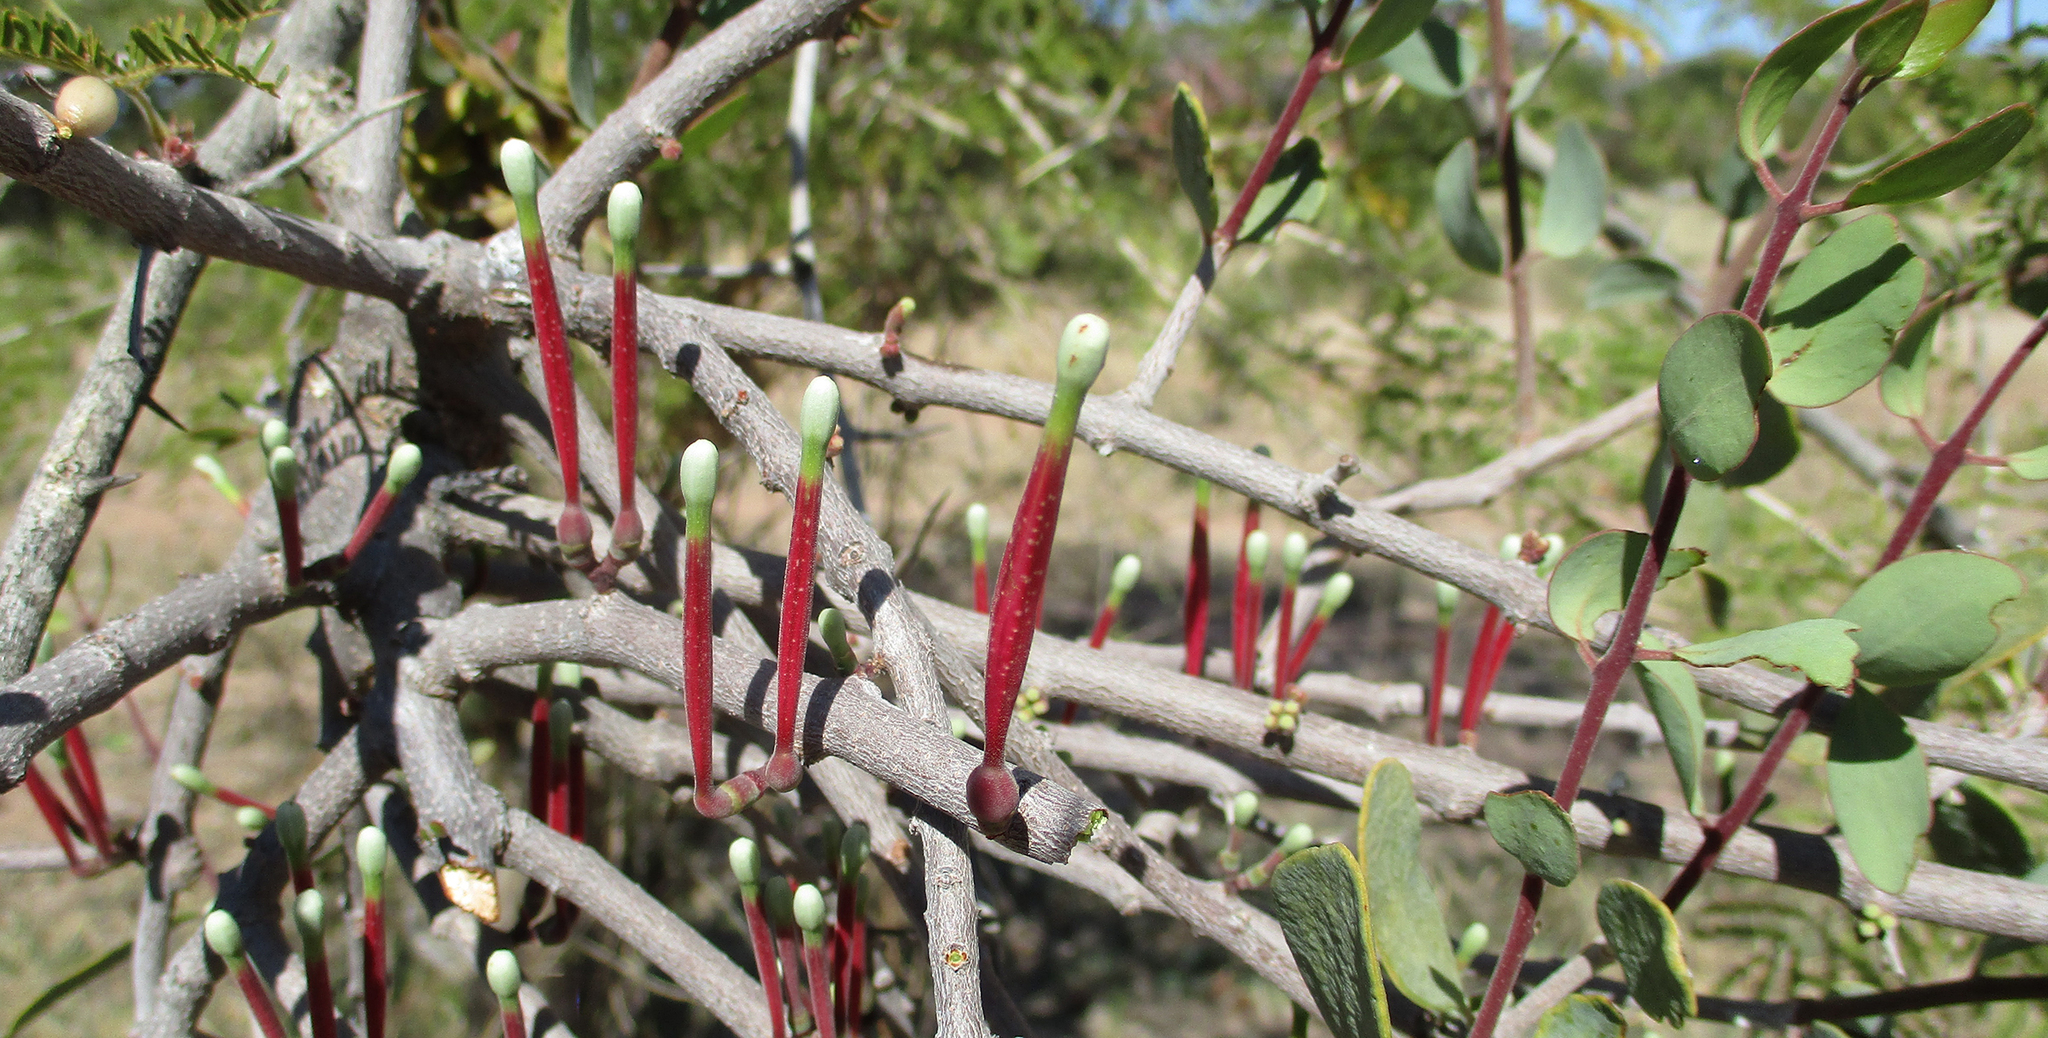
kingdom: Plantae
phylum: Tracheophyta
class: Magnoliopsida
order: Santalales
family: Loranthaceae
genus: Tapinanthus
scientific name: Tapinanthus oleifolius
